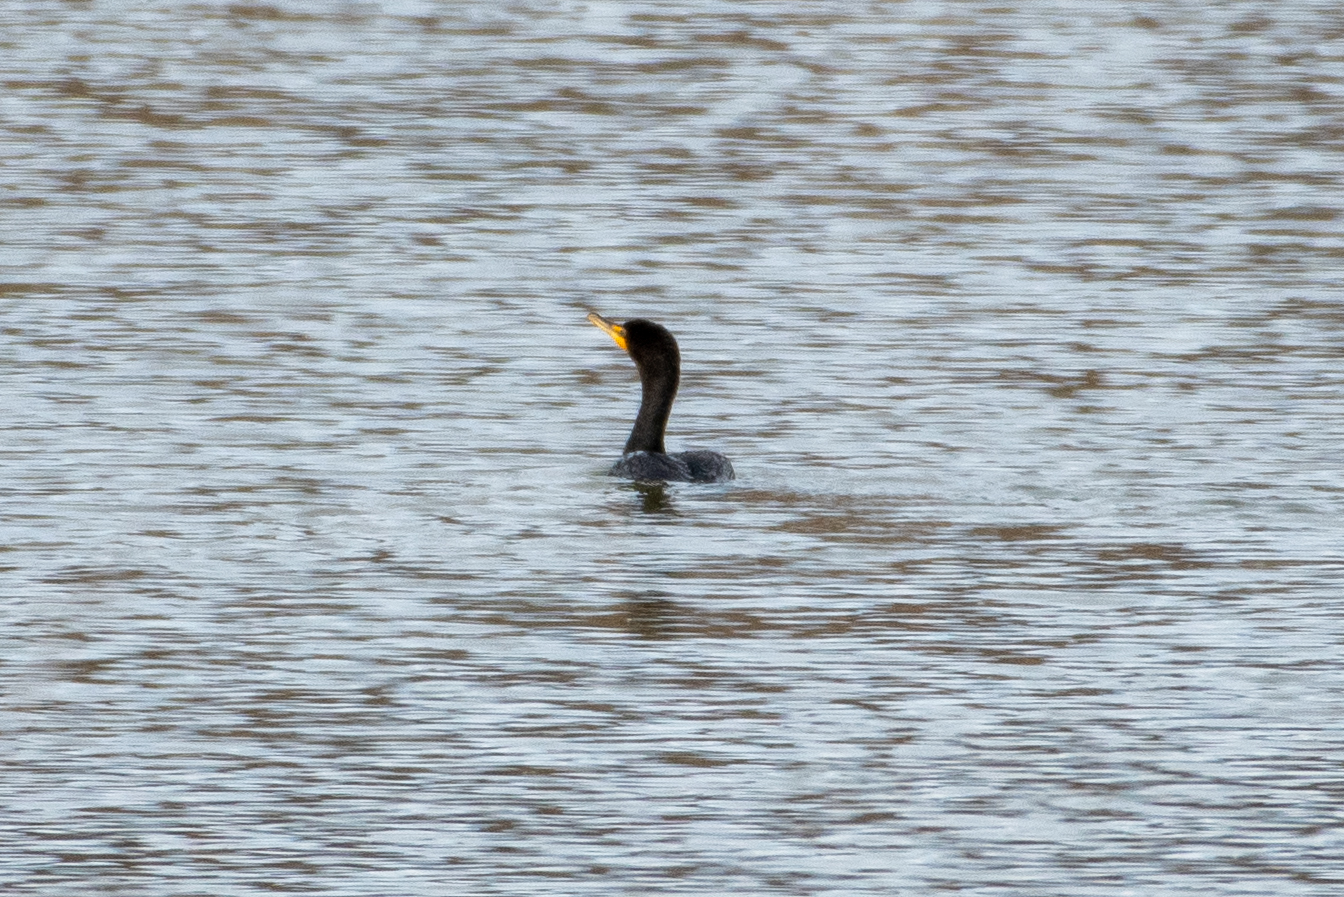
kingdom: Animalia
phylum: Chordata
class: Aves
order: Suliformes
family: Phalacrocoracidae
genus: Phalacrocorax
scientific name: Phalacrocorax auritus
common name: Double-crested cormorant
